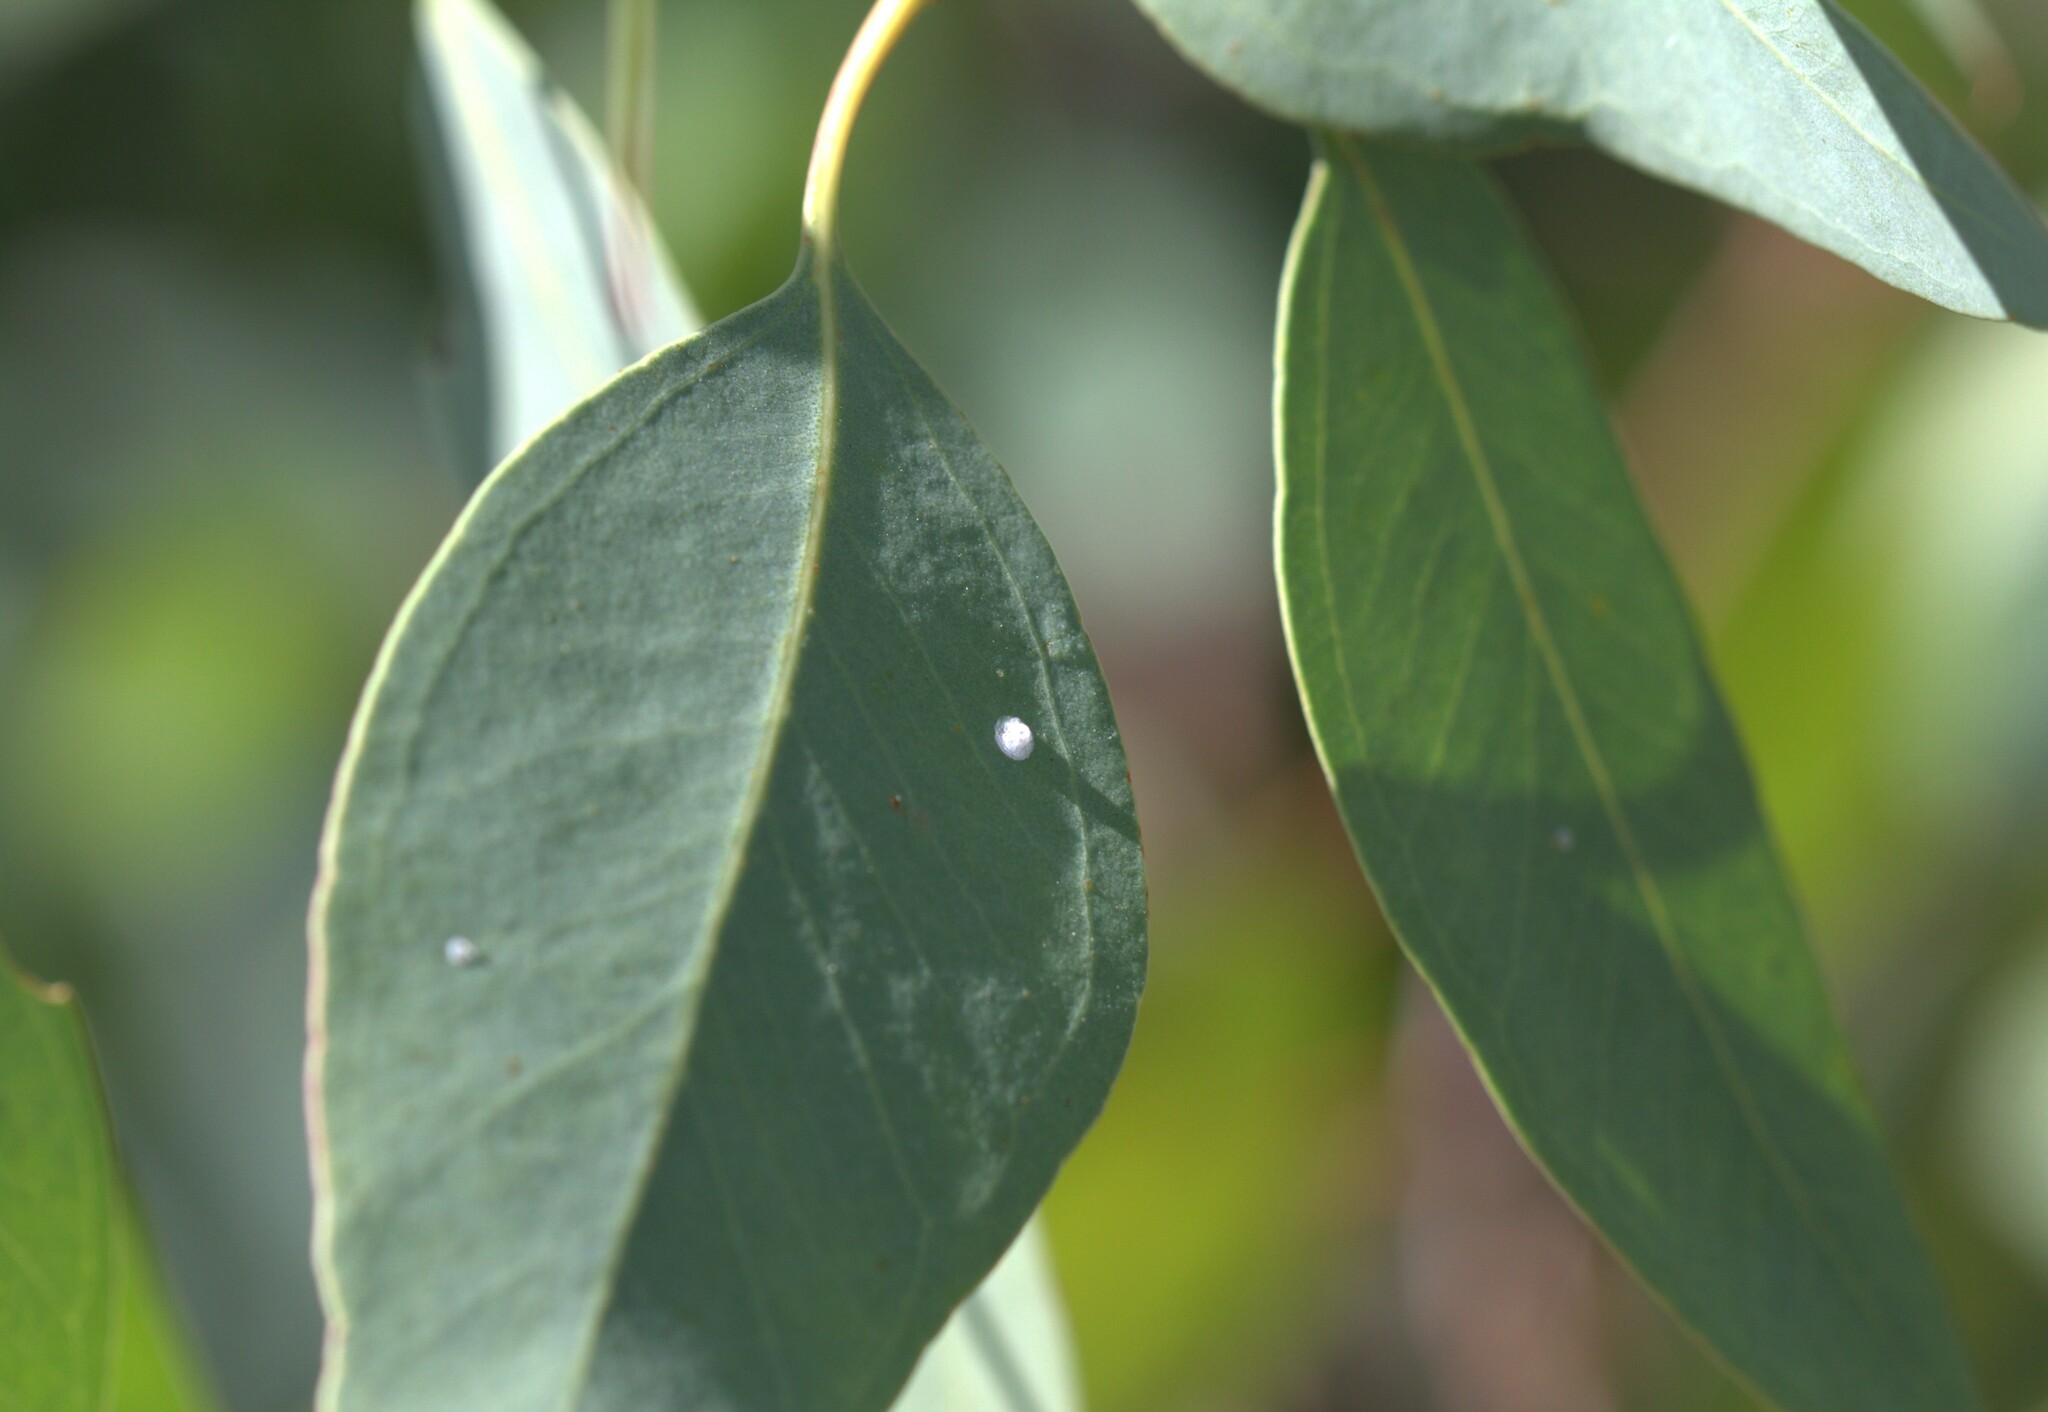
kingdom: Animalia
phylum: Arthropoda
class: Insecta
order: Hemiptera
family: Aphalaridae
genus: Glycaspis
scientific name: Glycaspis brimblecombei
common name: Red gum lerp psyllid
